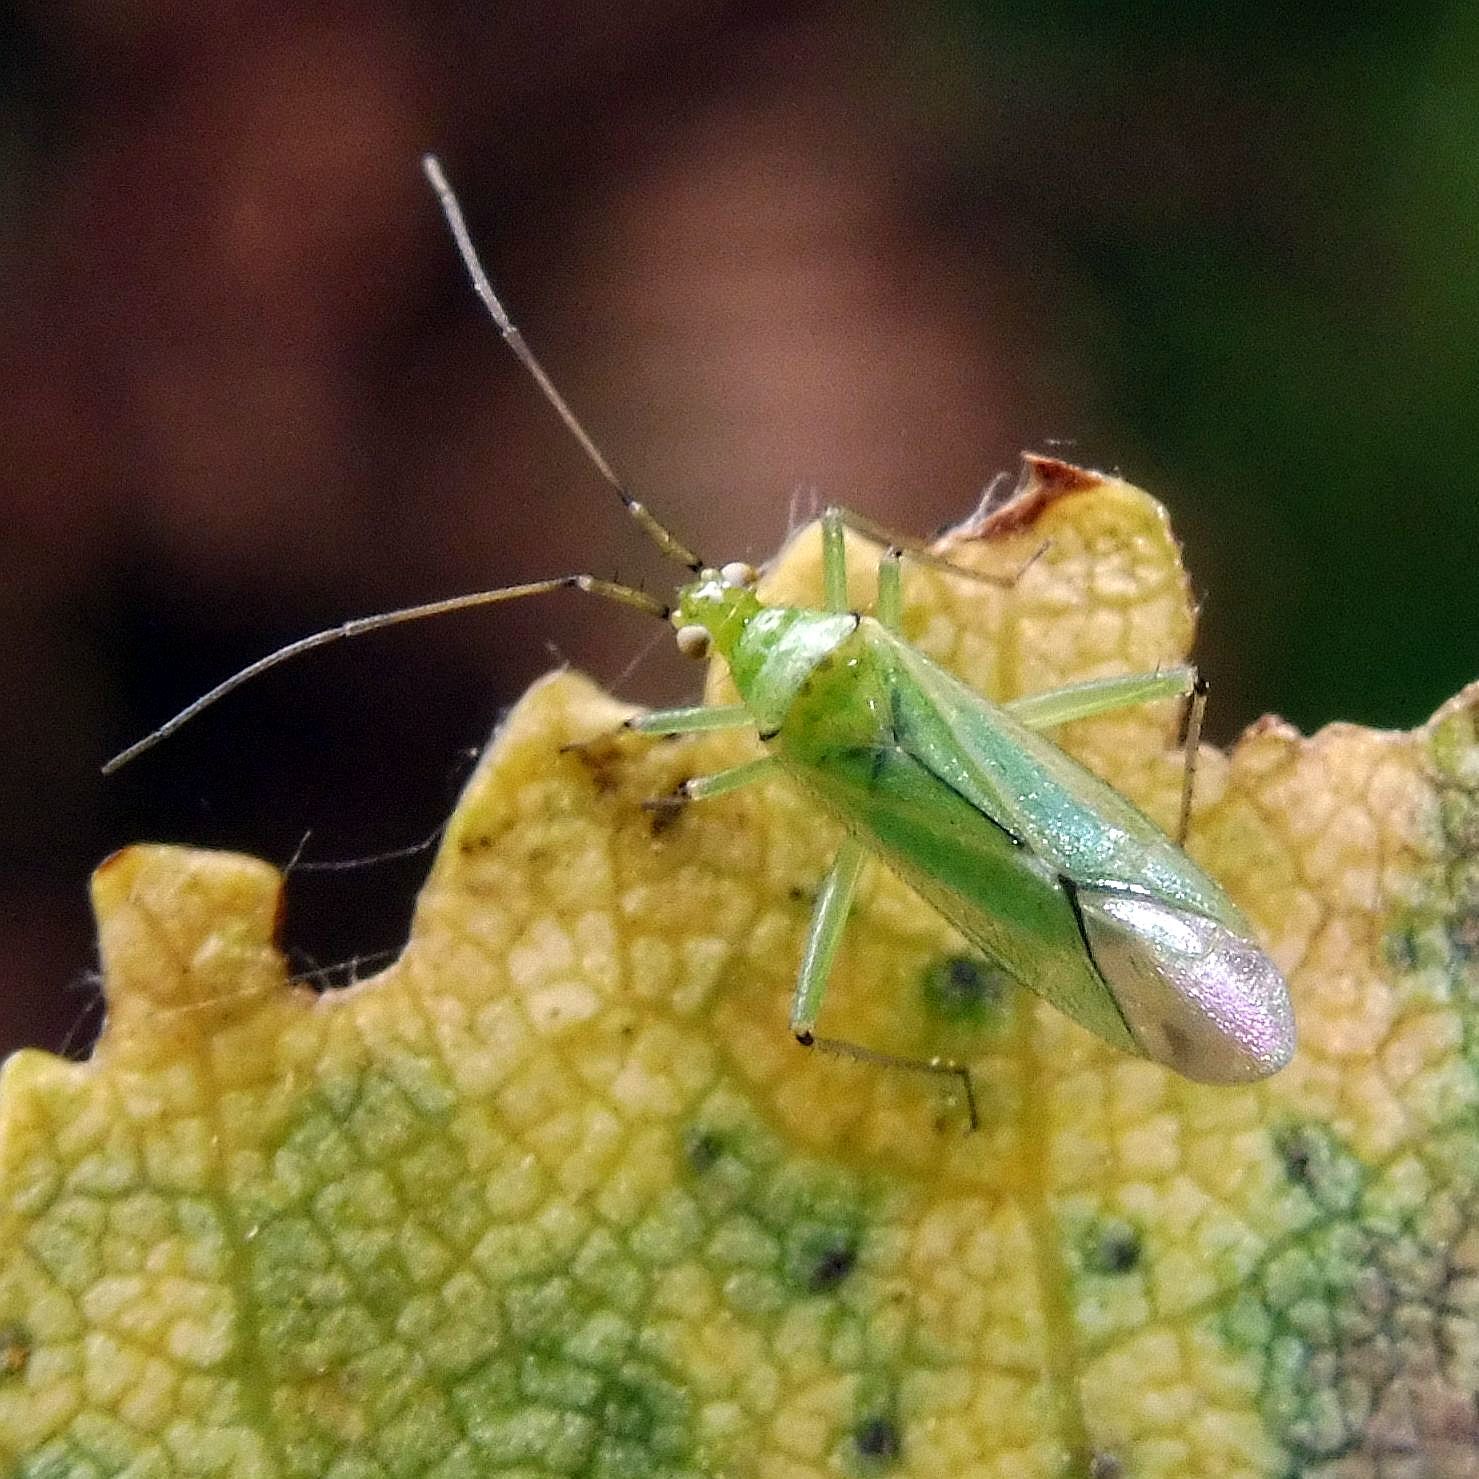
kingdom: Animalia
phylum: Arthropoda
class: Insecta
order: Hemiptera
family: Miridae
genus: Blepharidopterus
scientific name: Blepharidopterus angulatus
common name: Plant bug
